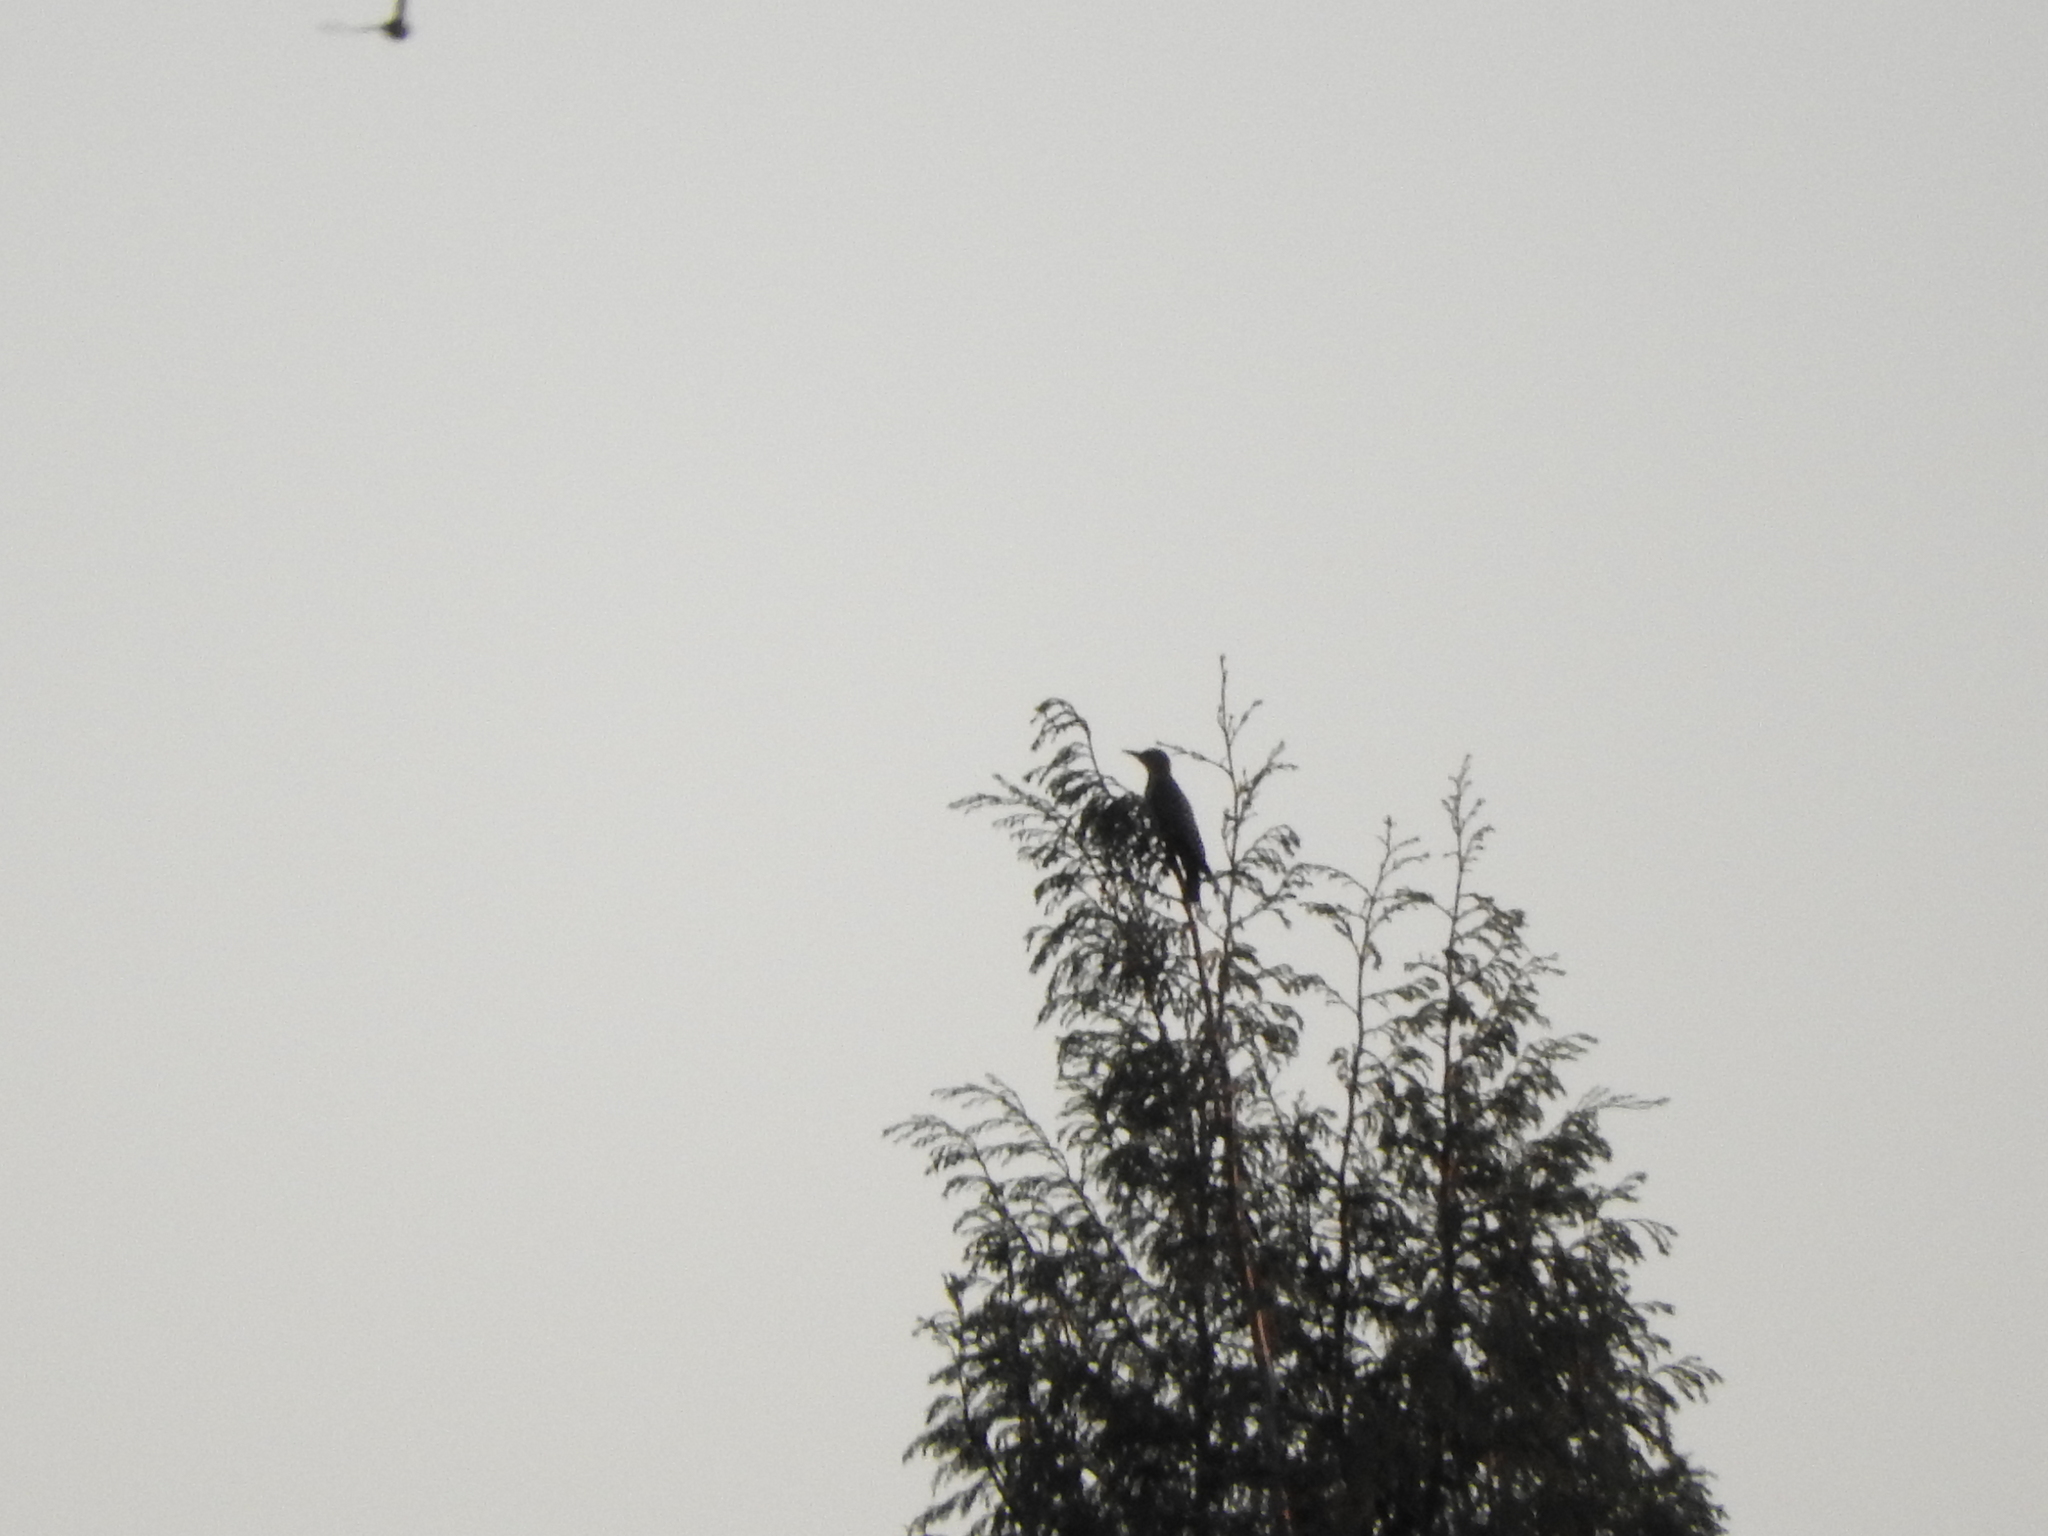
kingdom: Animalia
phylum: Chordata
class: Aves
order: Piciformes
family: Picidae
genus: Melanerpes
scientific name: Melanerpes aurifrons
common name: Golden-fronted woodpecker
